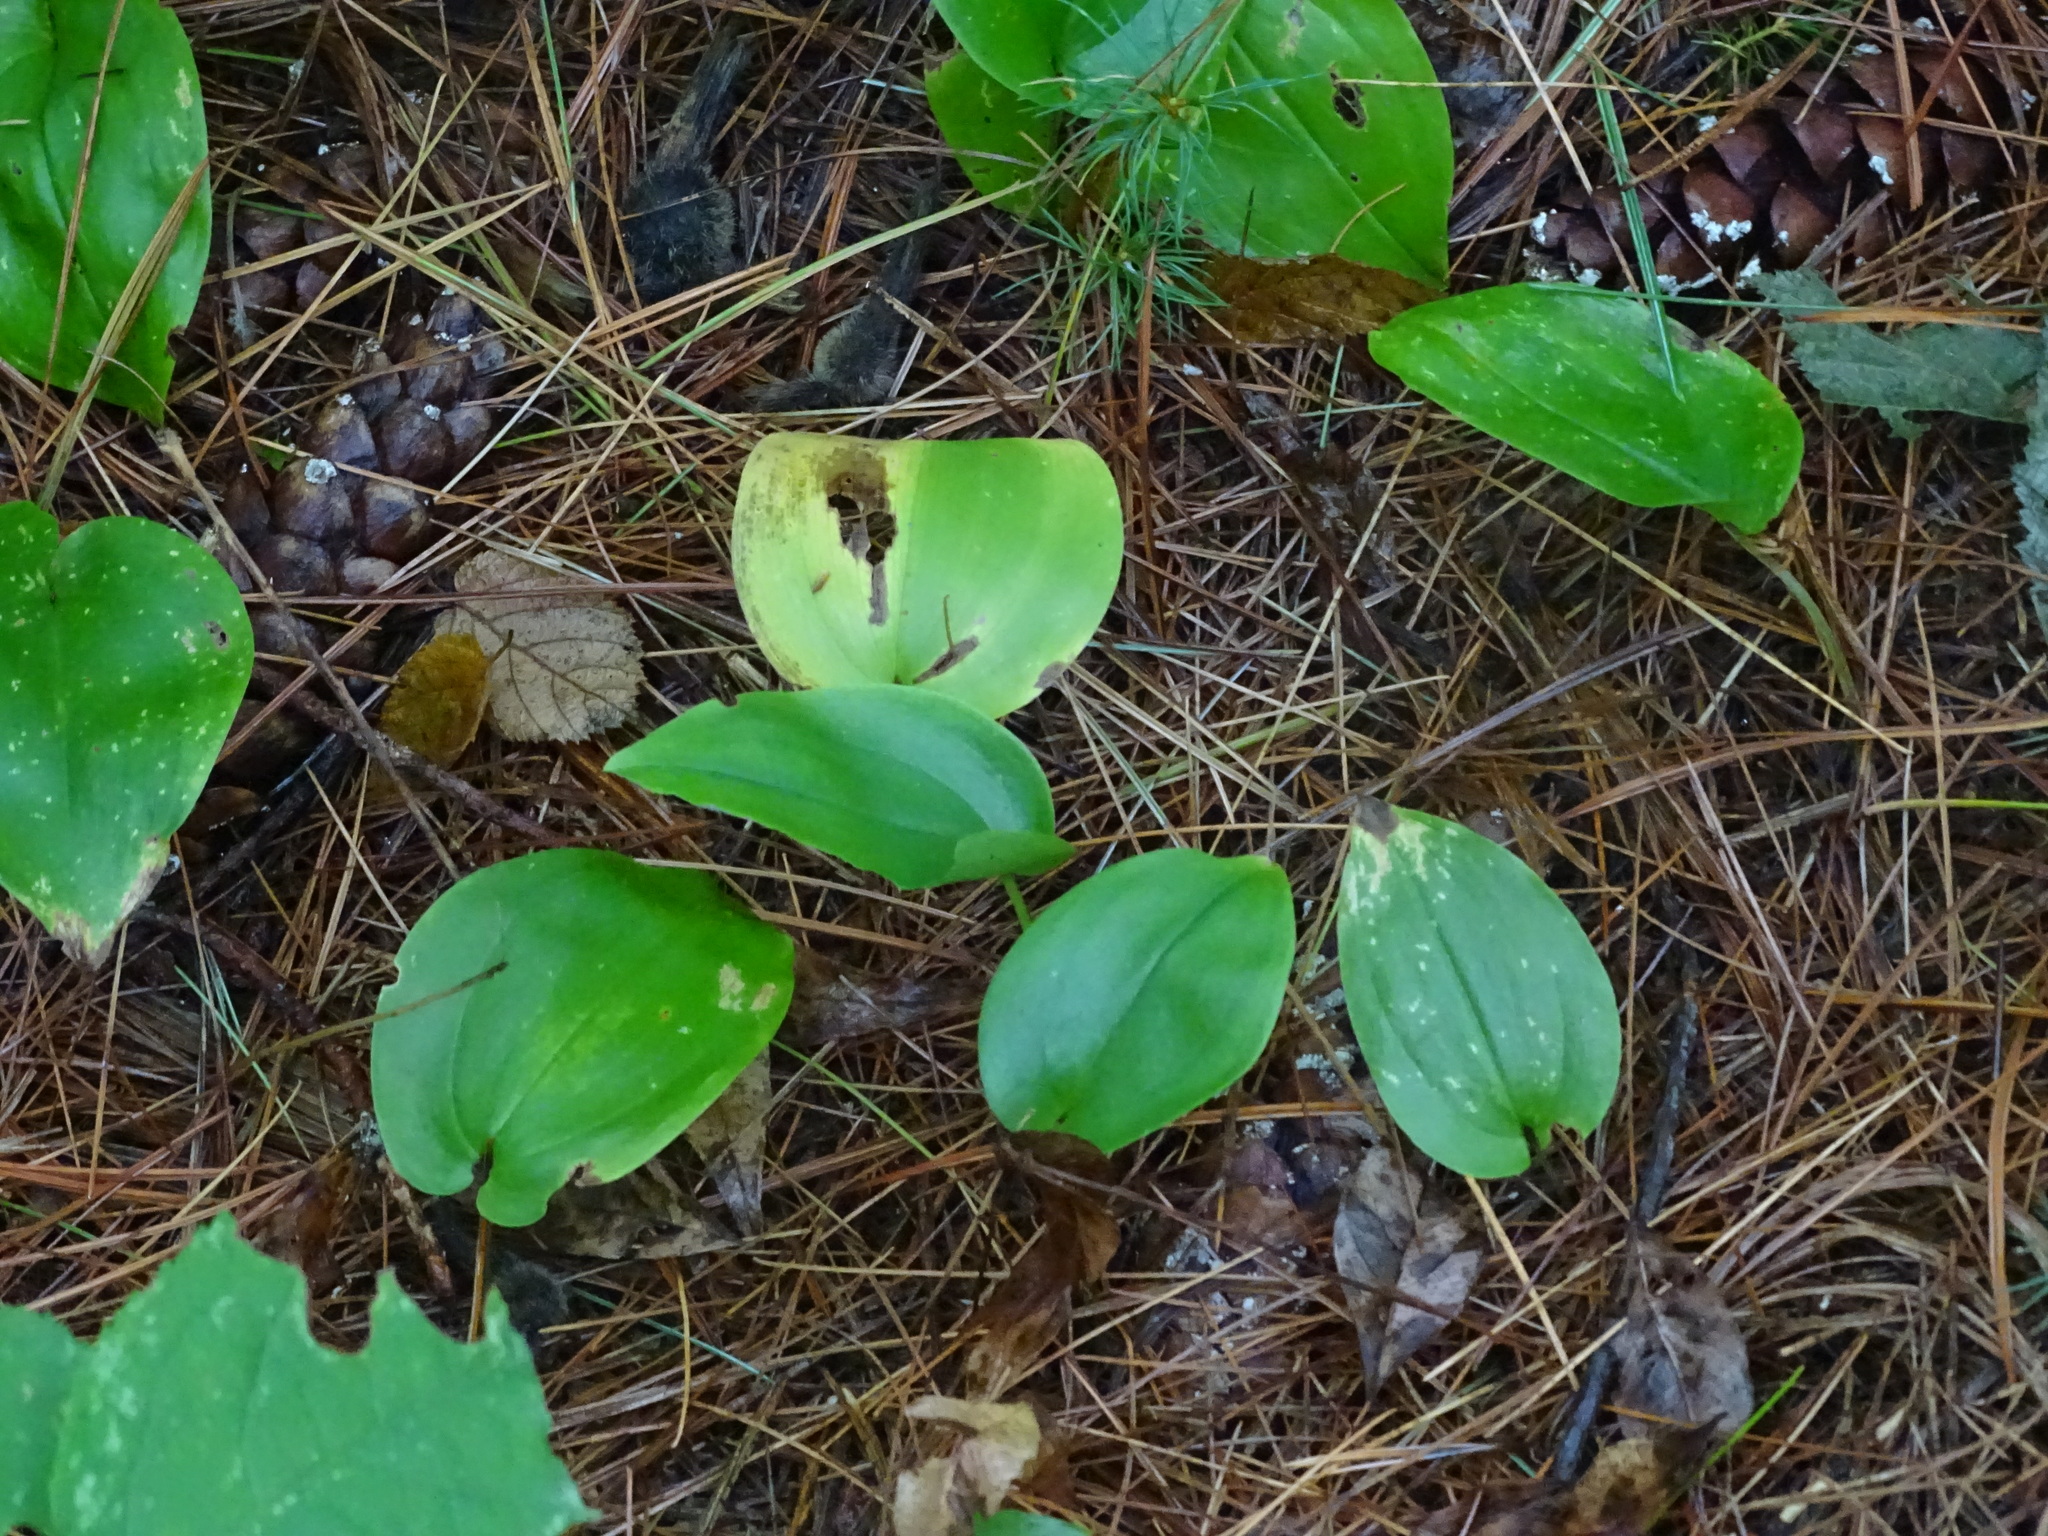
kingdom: Plantae
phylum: Tracheophyta
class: Liliopsida
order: Asparagales
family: Asparagaceae
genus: Maianthemum
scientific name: Maianthemum canadense
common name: False lily-of-the-valley
